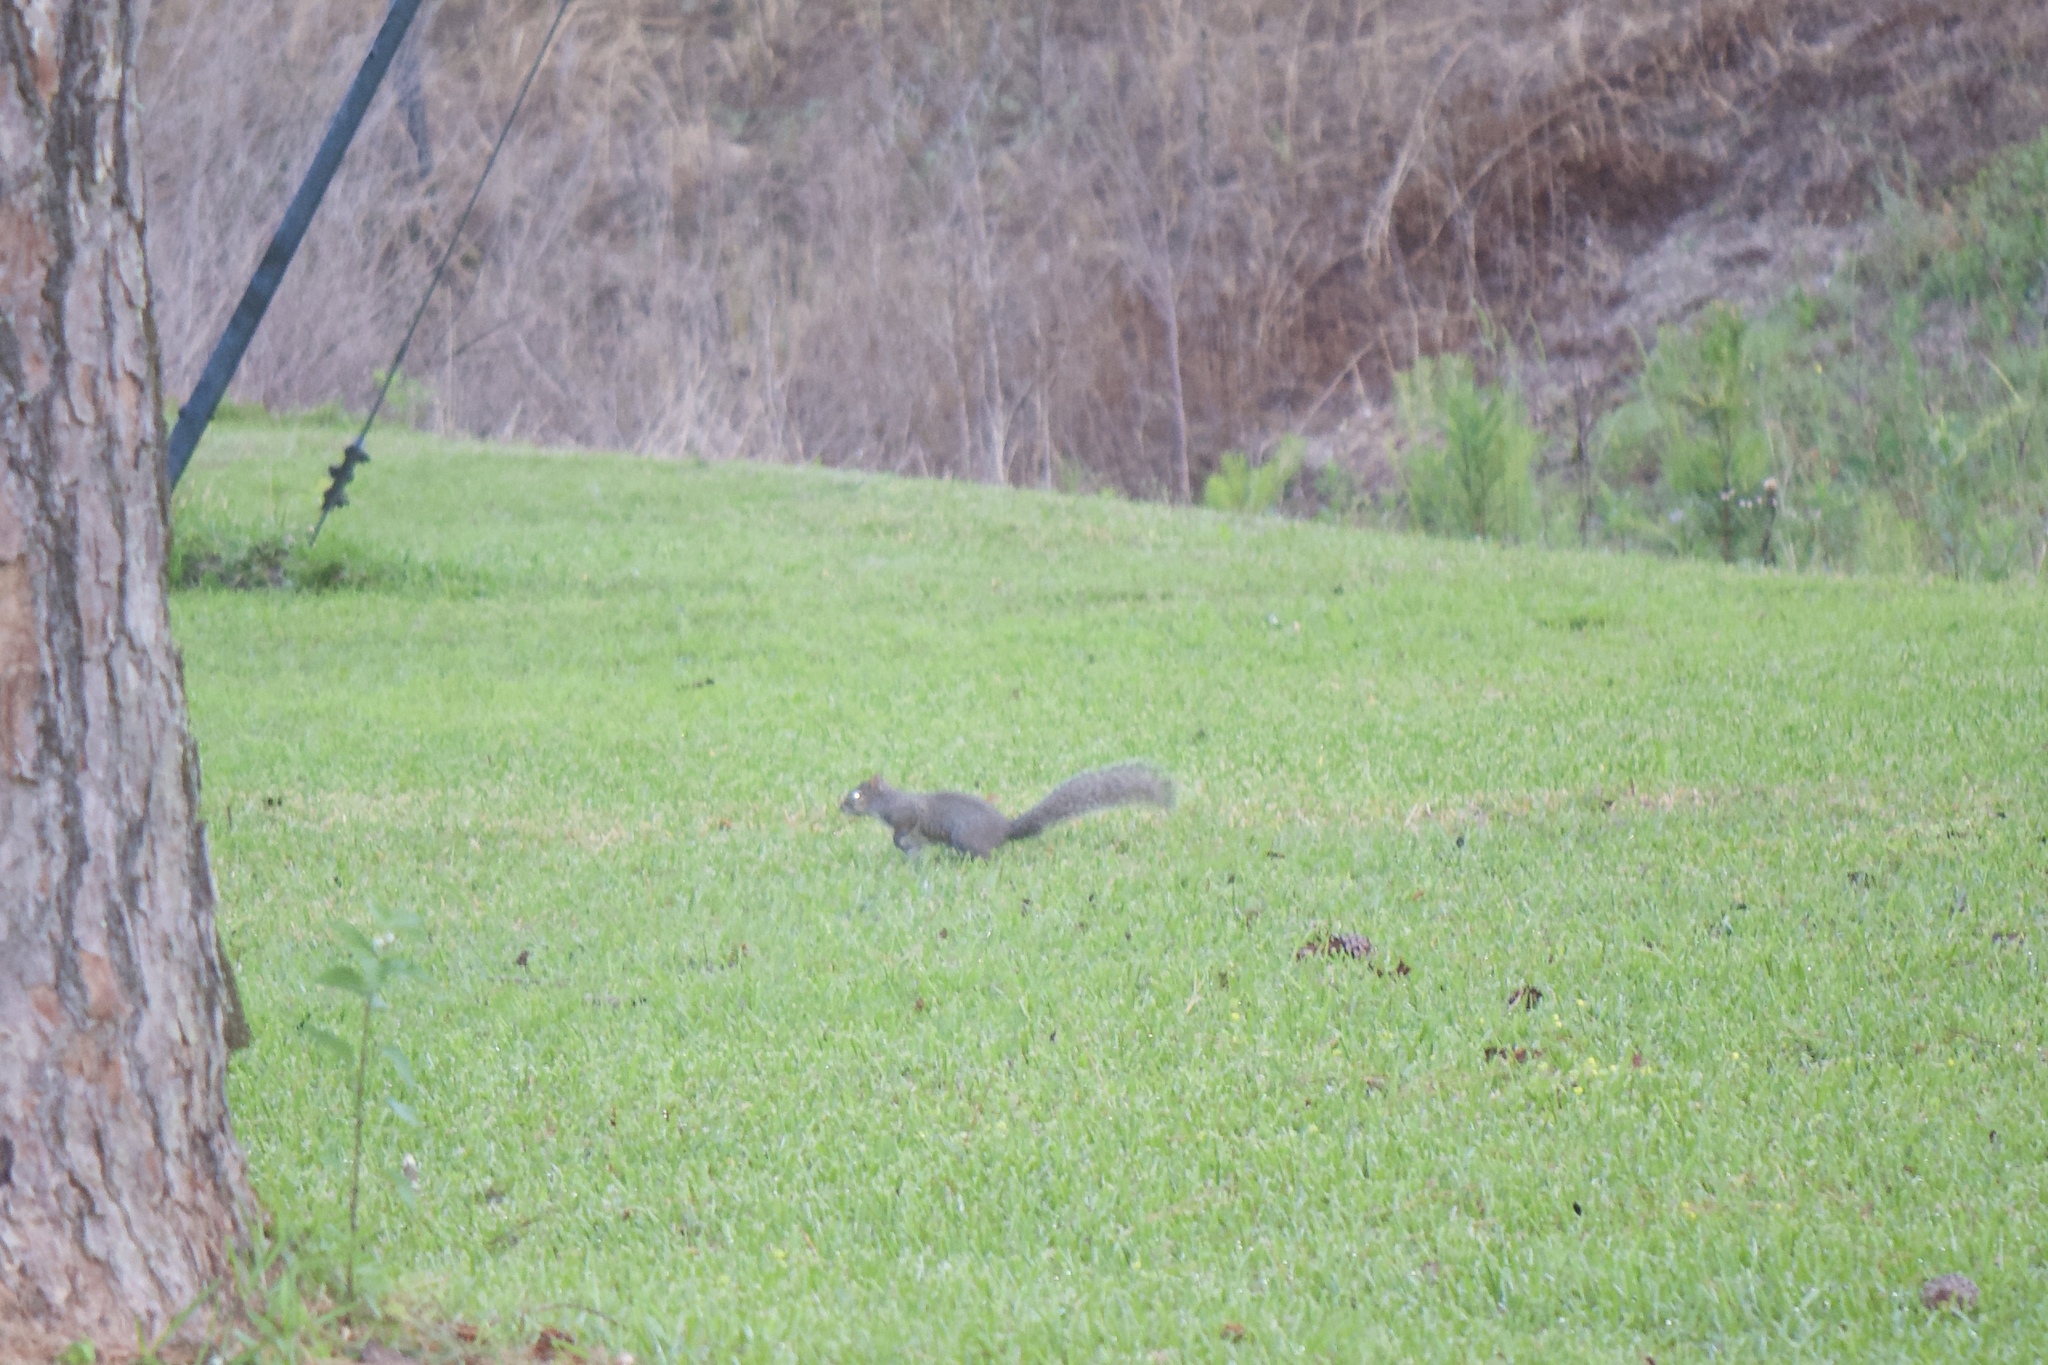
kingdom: Animalia
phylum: Chordata
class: Mammalia
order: Rodentia
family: Sciuridae
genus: Sciurus
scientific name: Sciurus carolinensis
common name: Eastern gray squirrel
